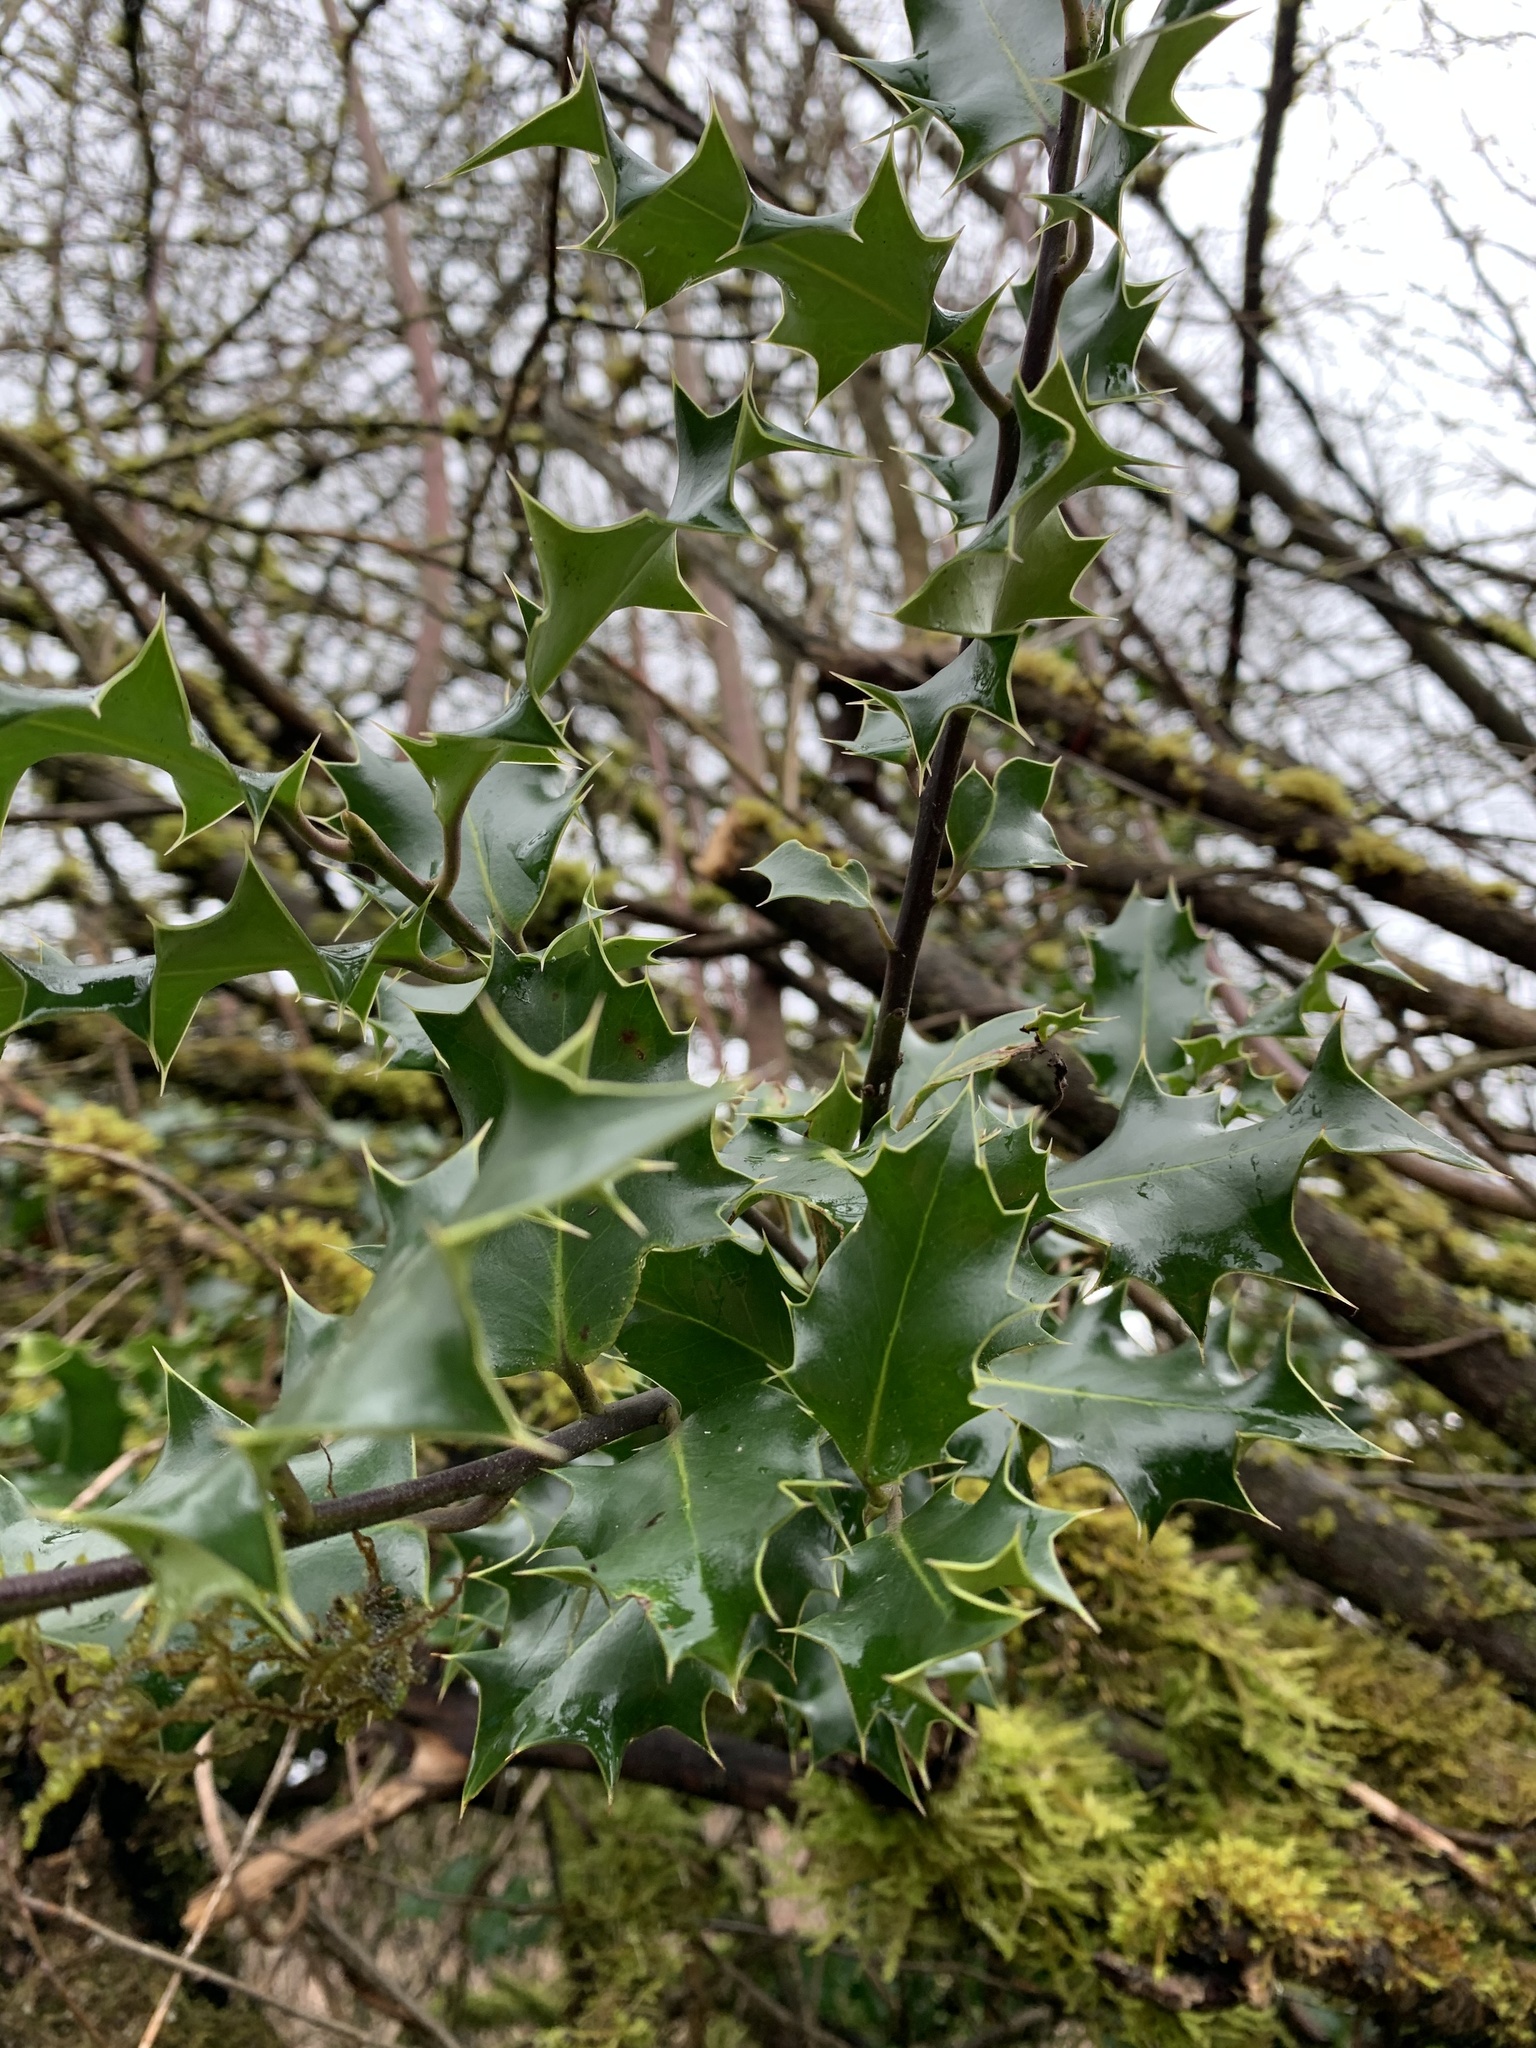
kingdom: Plantae
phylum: Tracheophyta
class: Magnoliopsida
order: Aquifoliales
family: Aquifoliaceae
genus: Ilex
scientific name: Ilex aquifolium
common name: English holly
